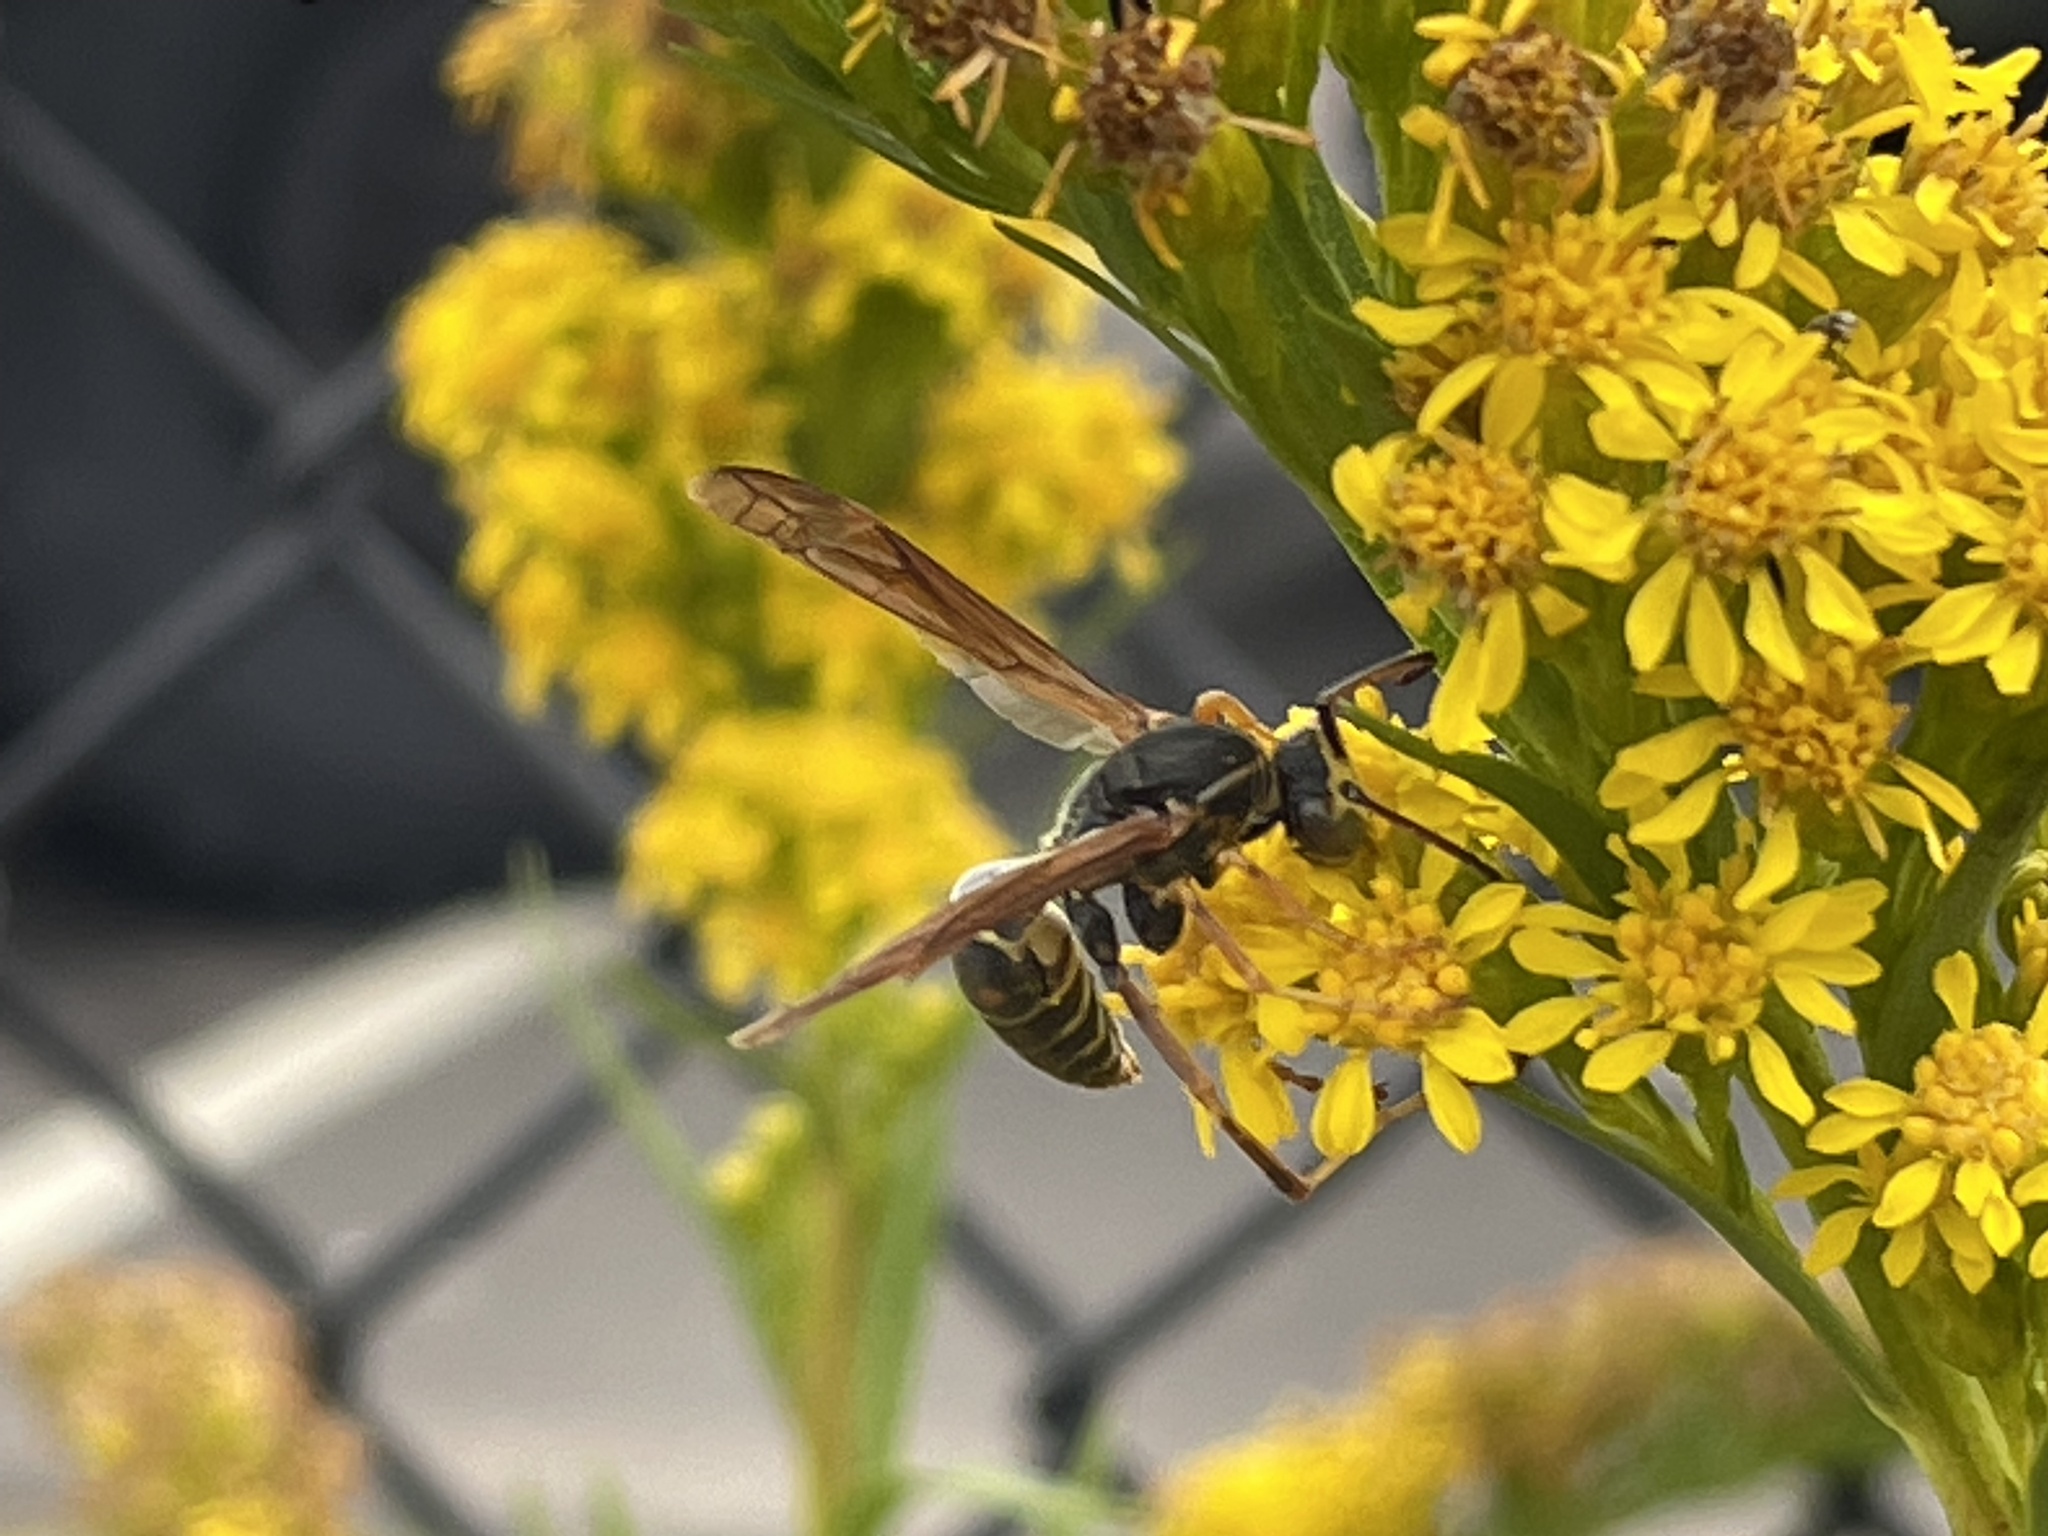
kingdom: Animalia
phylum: Arthropoda
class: Insecta
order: Hymenoptera
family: Eumenidae
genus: Polistes
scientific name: Polistes fuscatus
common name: Dark paper wasp
